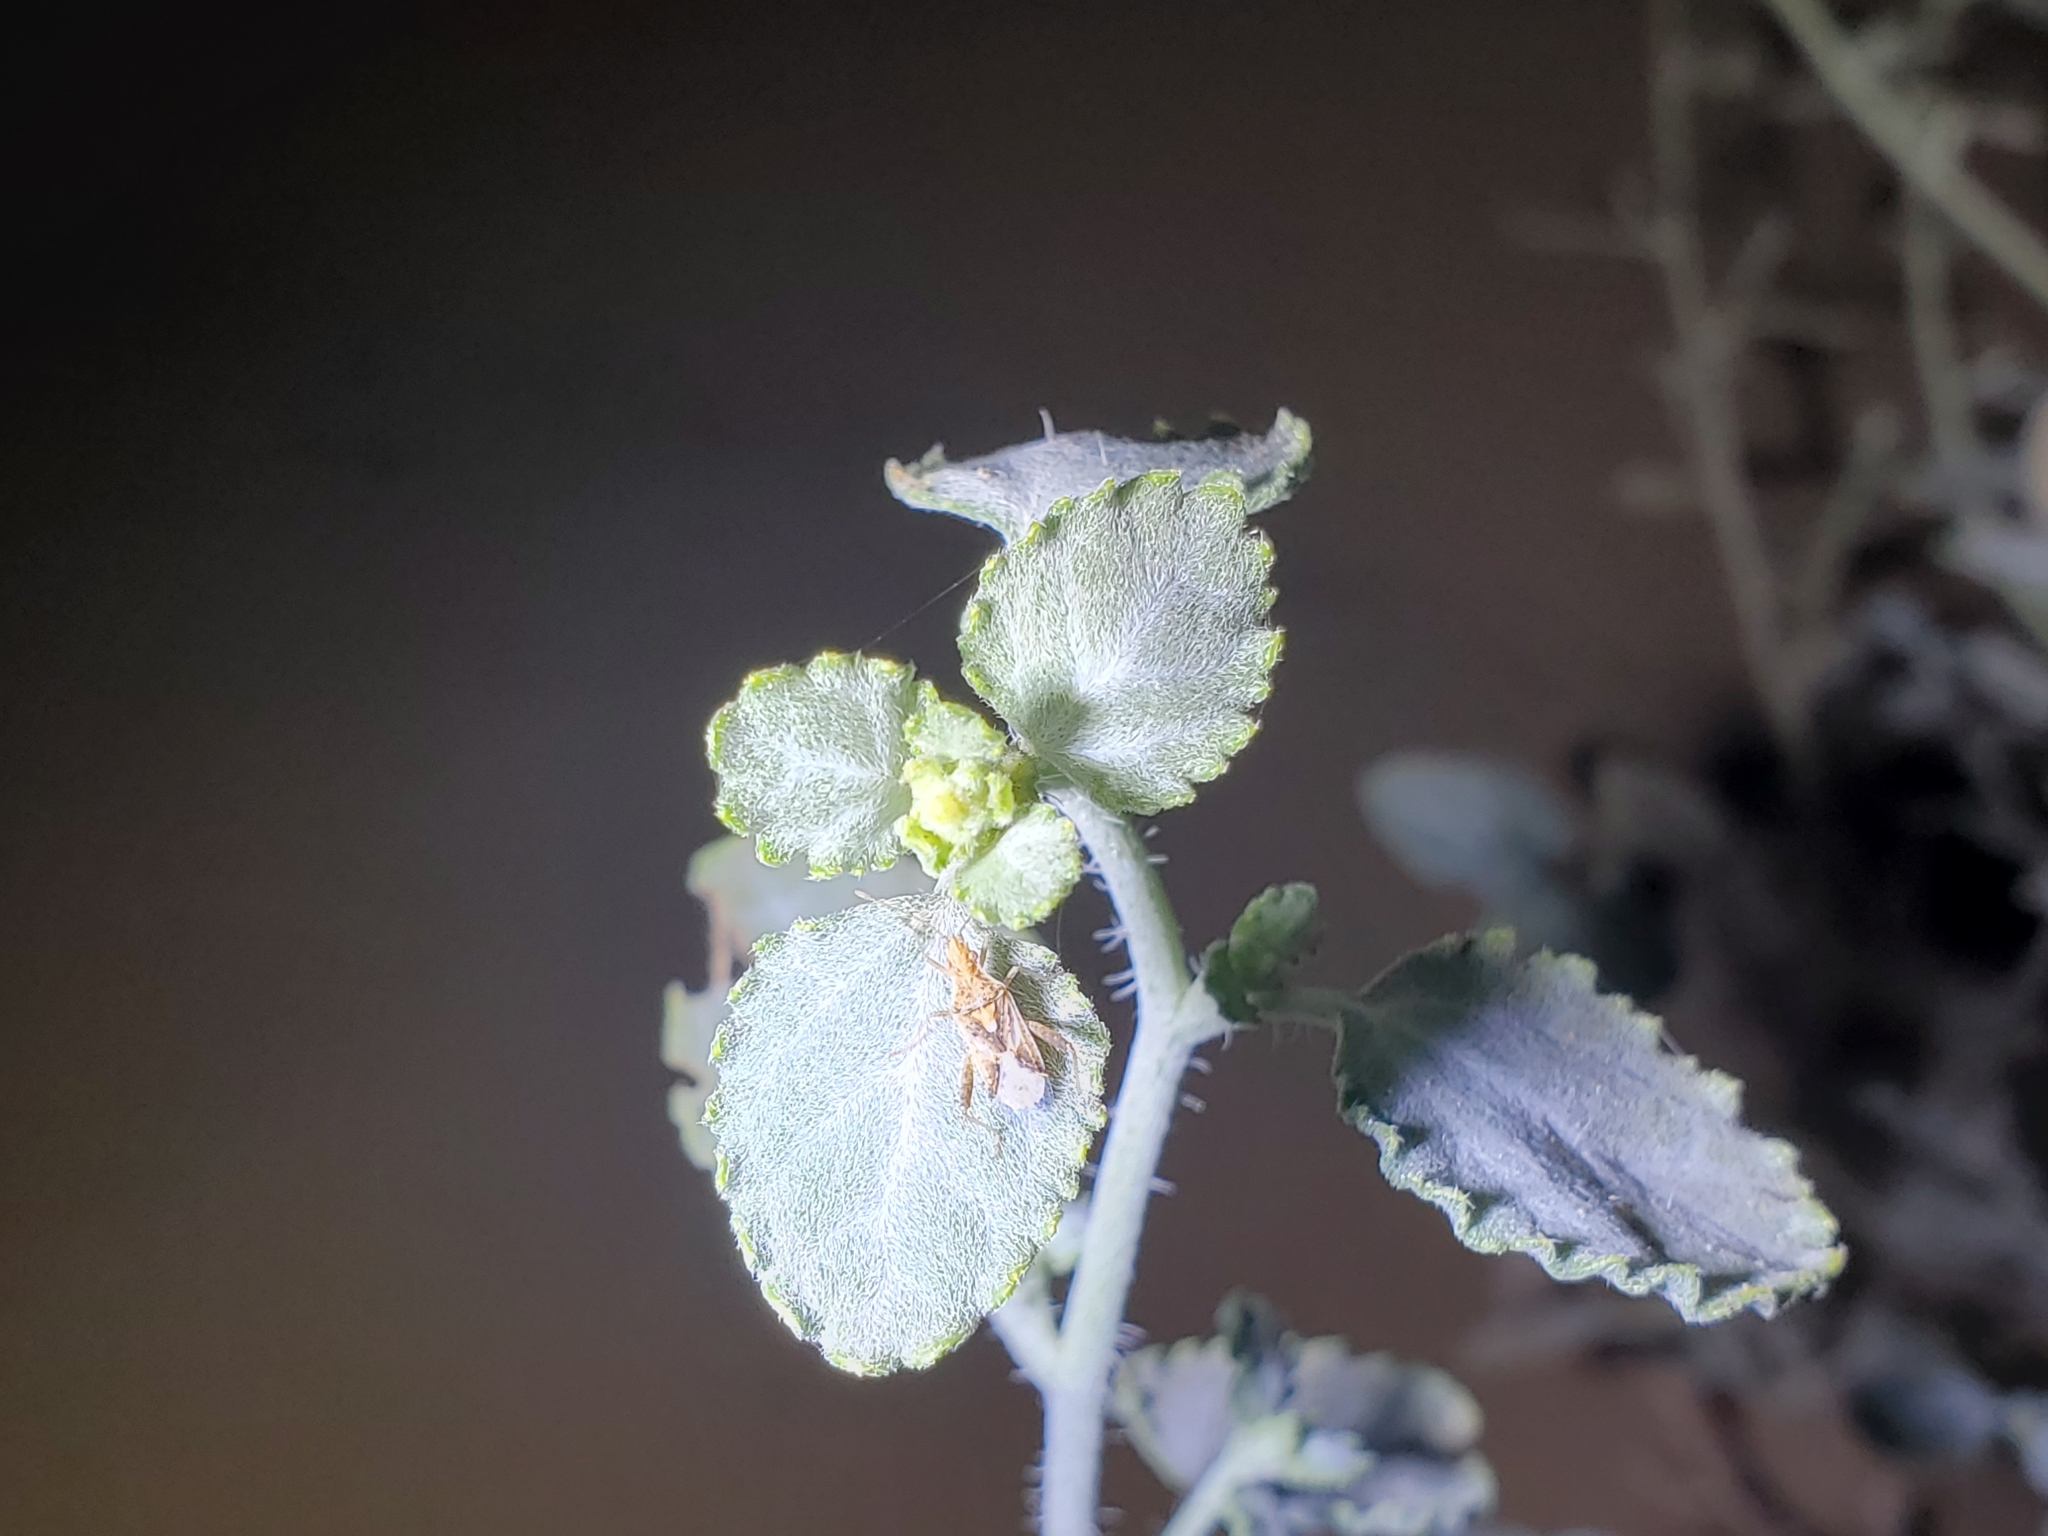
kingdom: Plantae
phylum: Tracheophyta
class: Magnoliopsida
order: Asterales
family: Asteraceae
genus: Dicoria
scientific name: Dicoria canescens
